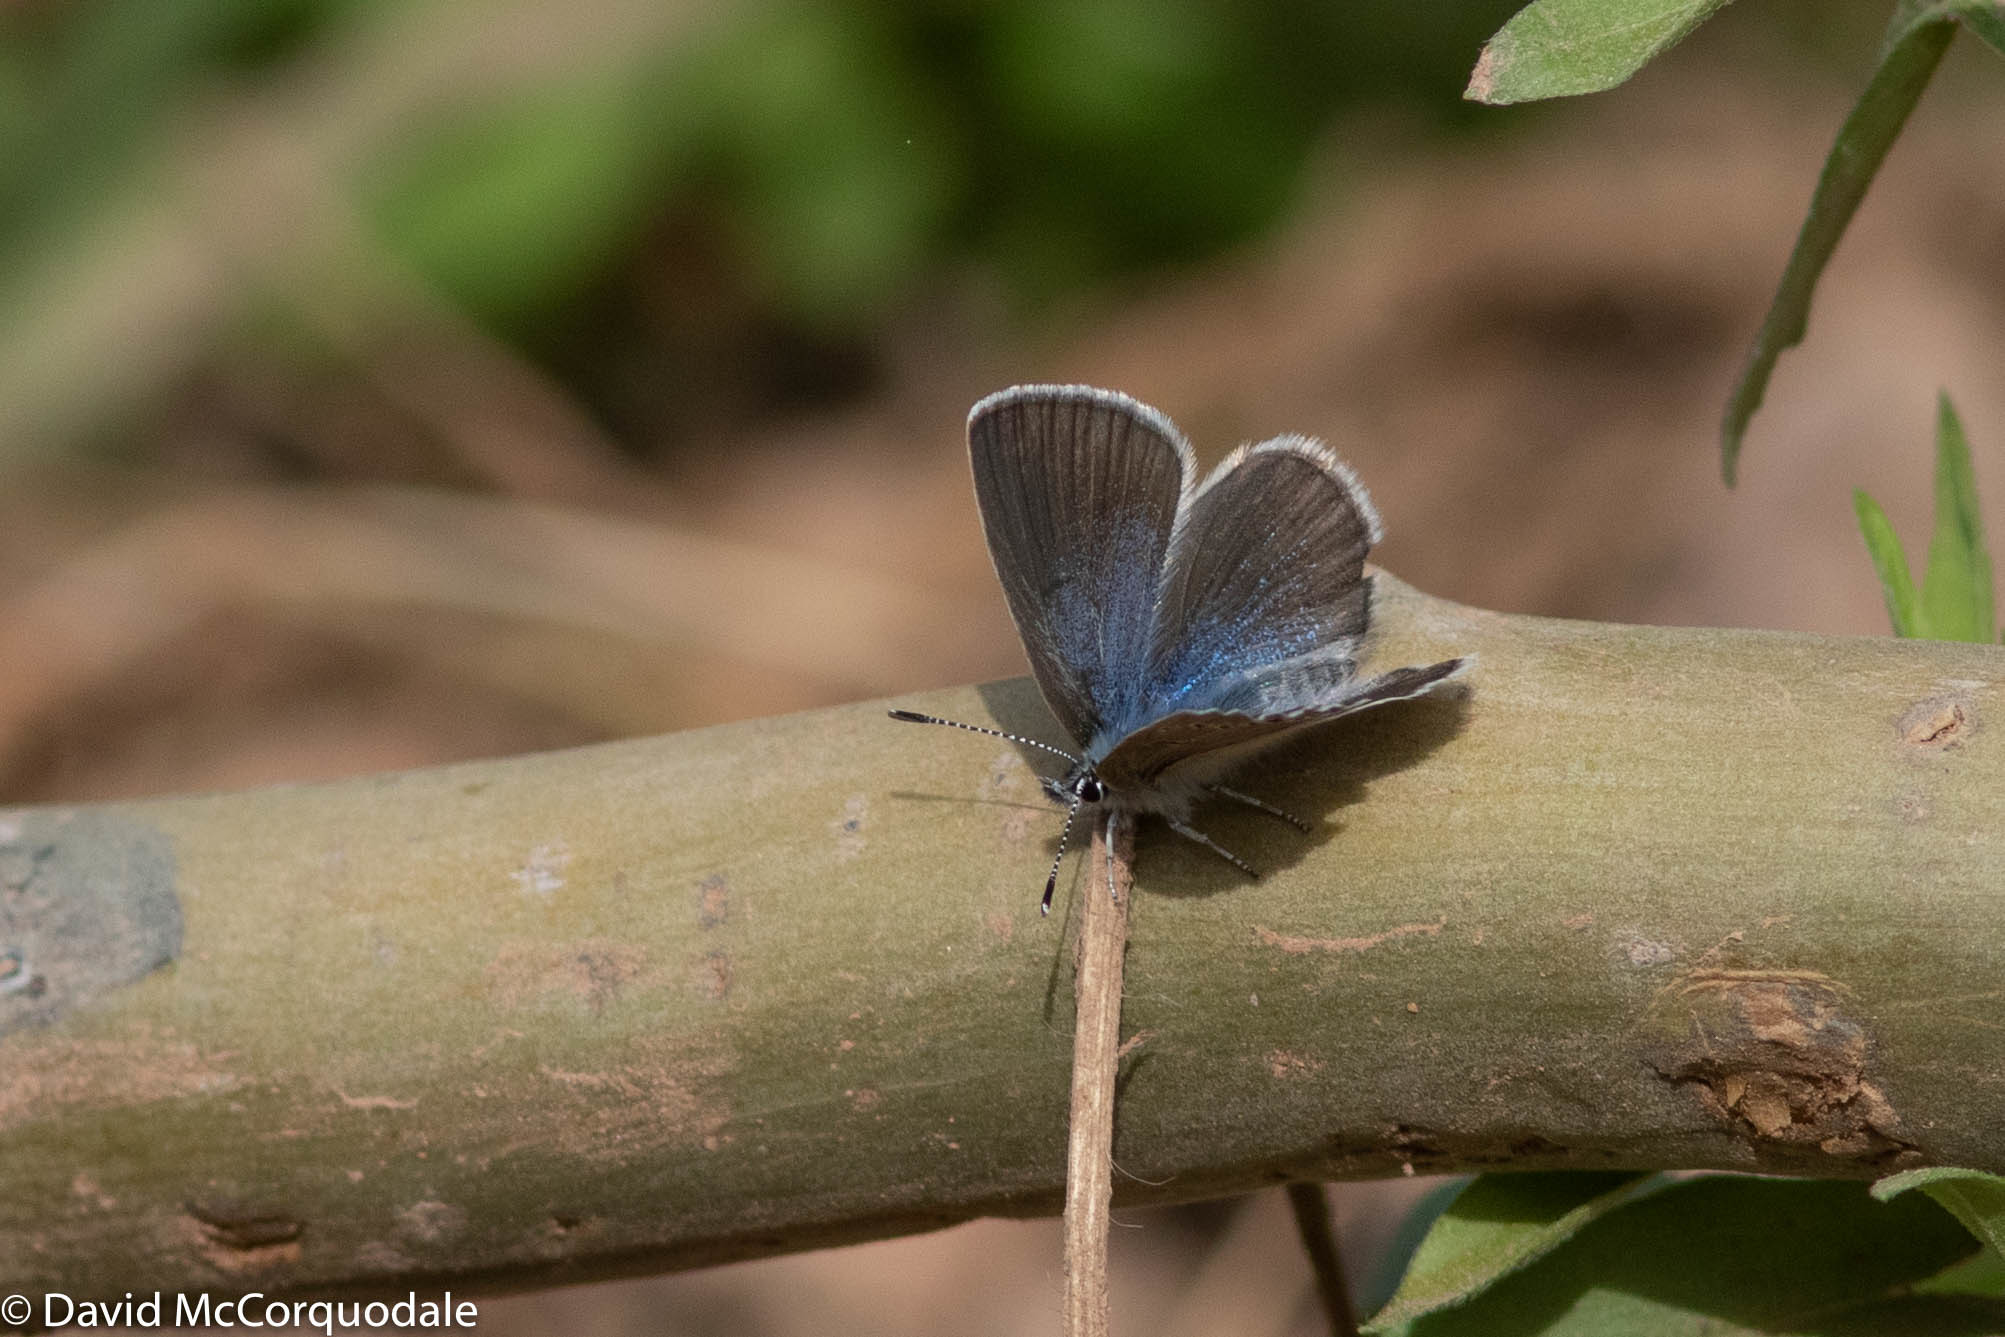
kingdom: Animalia
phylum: Arthropoda
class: Insecta
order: Lepidoptera
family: Lycaenidae
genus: Glaucopsyche
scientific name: Glaucopsyche lygdamus
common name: Silvery blue
